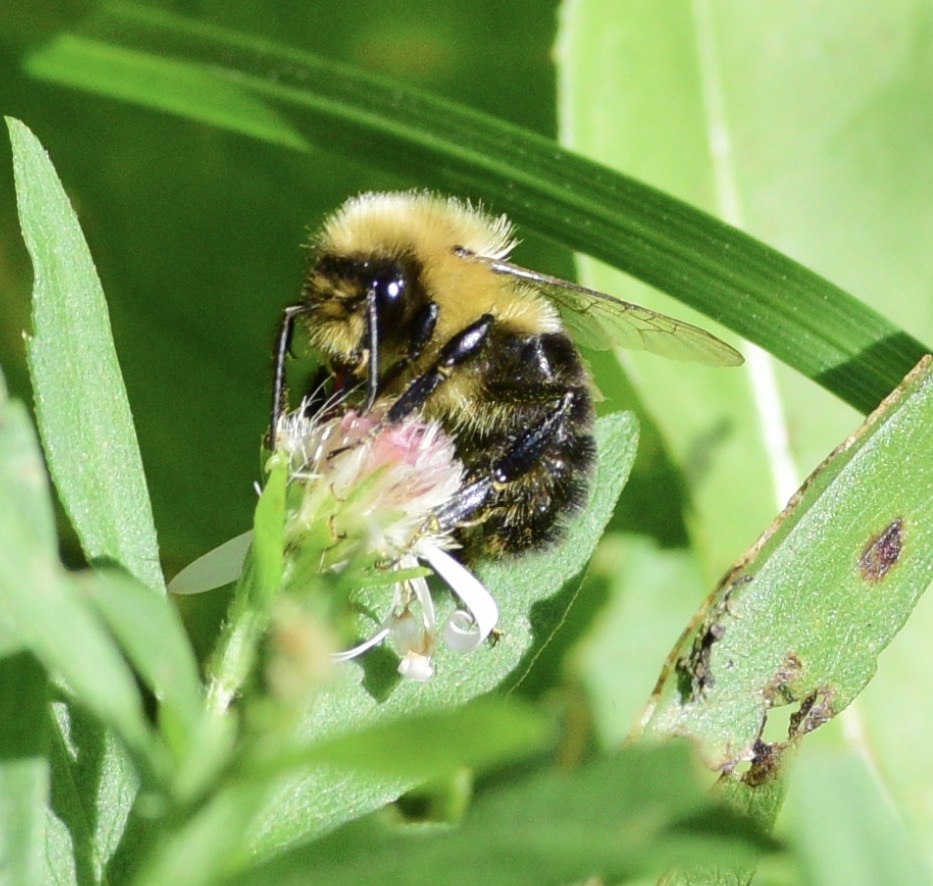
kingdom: Animalia
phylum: Arthropoda
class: Insecta
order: Hymenoptera
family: Apidae
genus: Bombus
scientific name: Bombus impatiens
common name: Common eastern bumble bee
